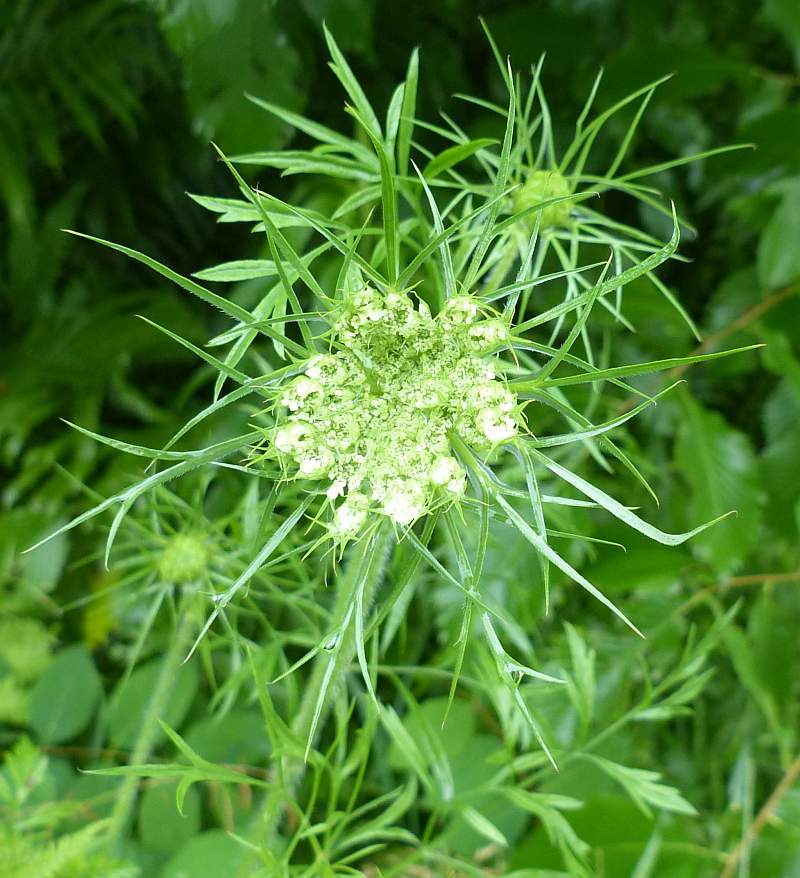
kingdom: Plantae
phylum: Tracheophyta
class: Magnoliopsida
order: Apiales
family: Apiaceae
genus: Daucus
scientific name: Daucus carota
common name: Wild carrot
